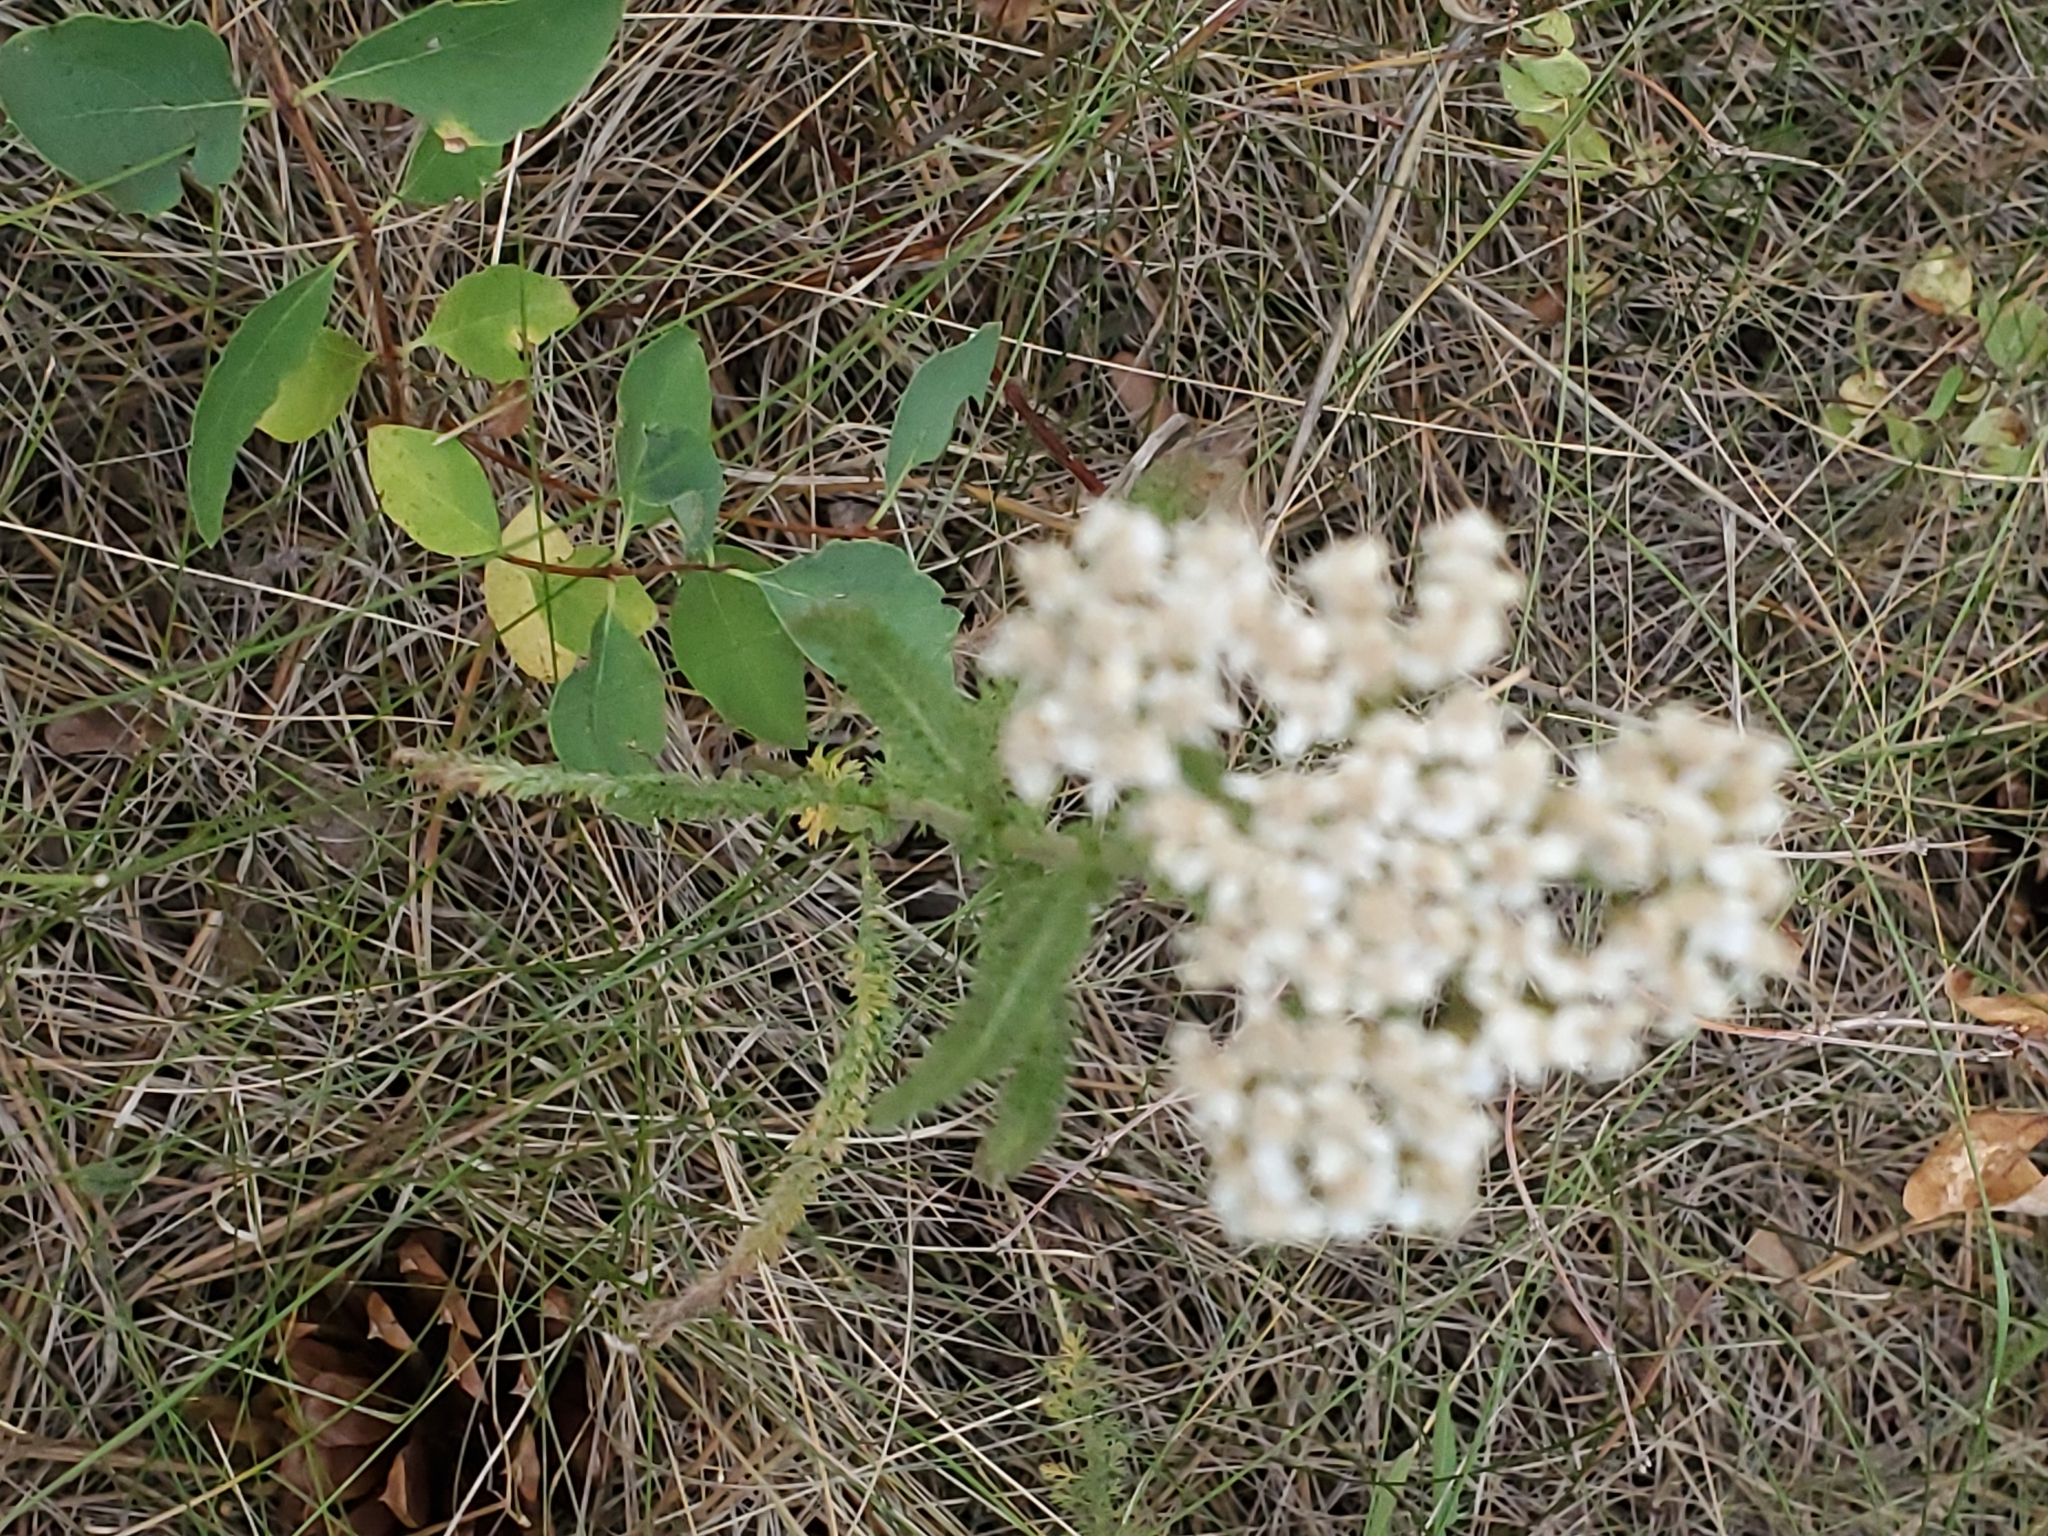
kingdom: Plantae
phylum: Tracheophyta
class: Magnoliopsida
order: Asterales
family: Asteraceae
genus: Achillea
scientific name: Achillea millefolium
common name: Yarrow
